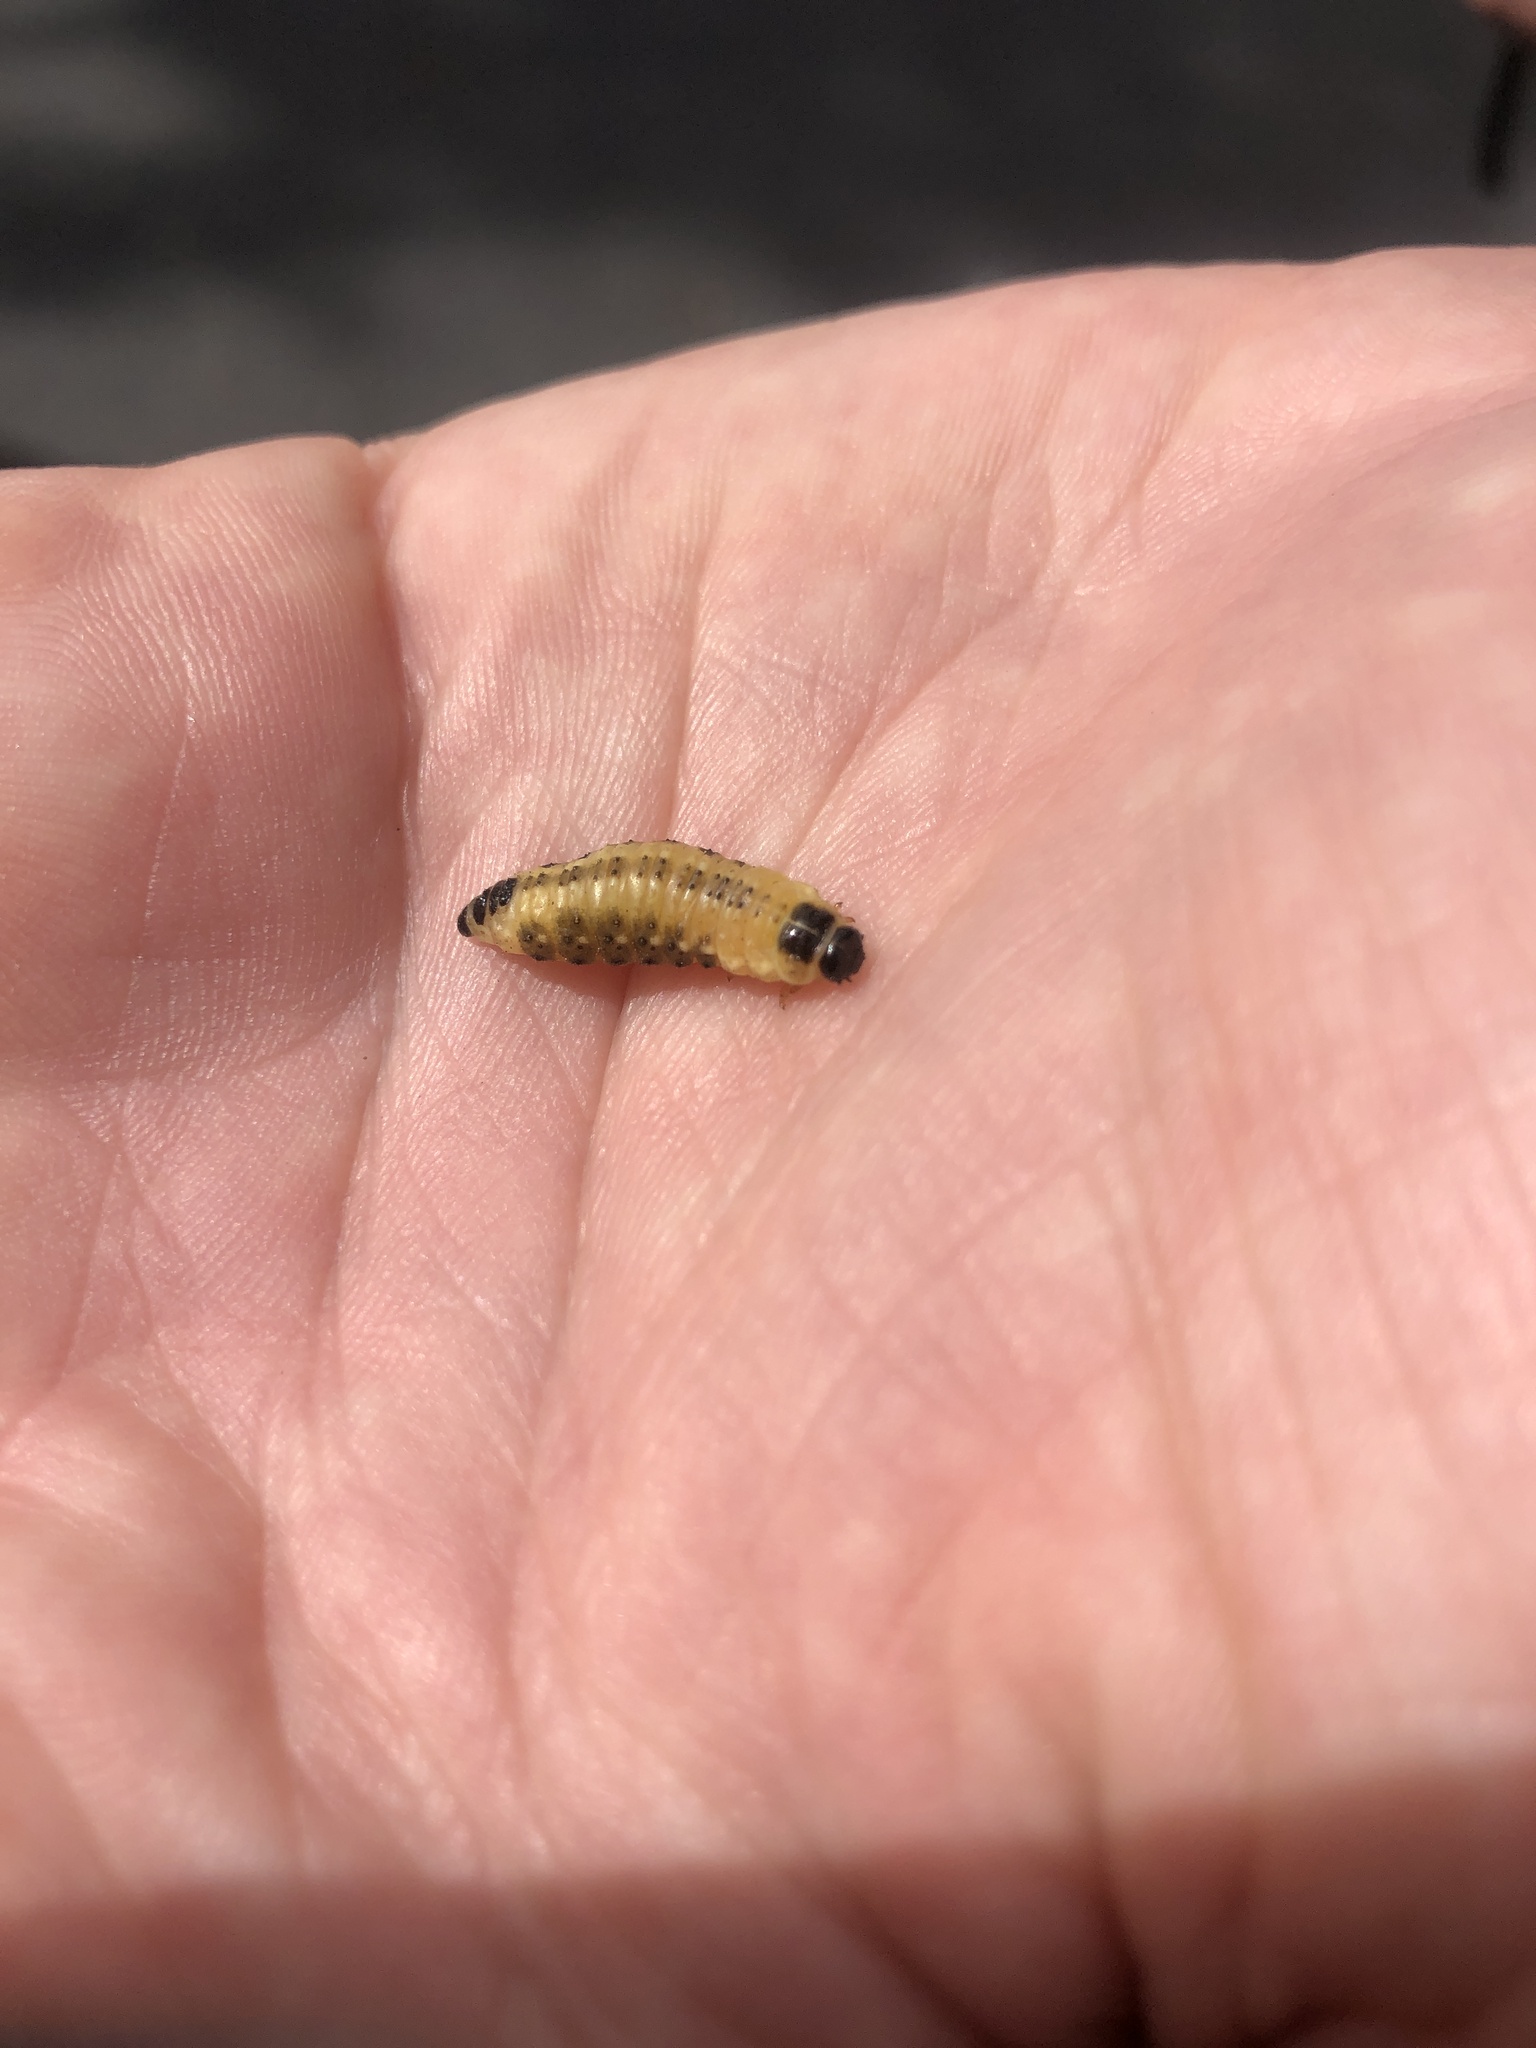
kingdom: Animalia
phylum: Arthropoda
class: Insecta
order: Coleoptera
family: Chrysomelidae
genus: Paropsis
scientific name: Paropsis
